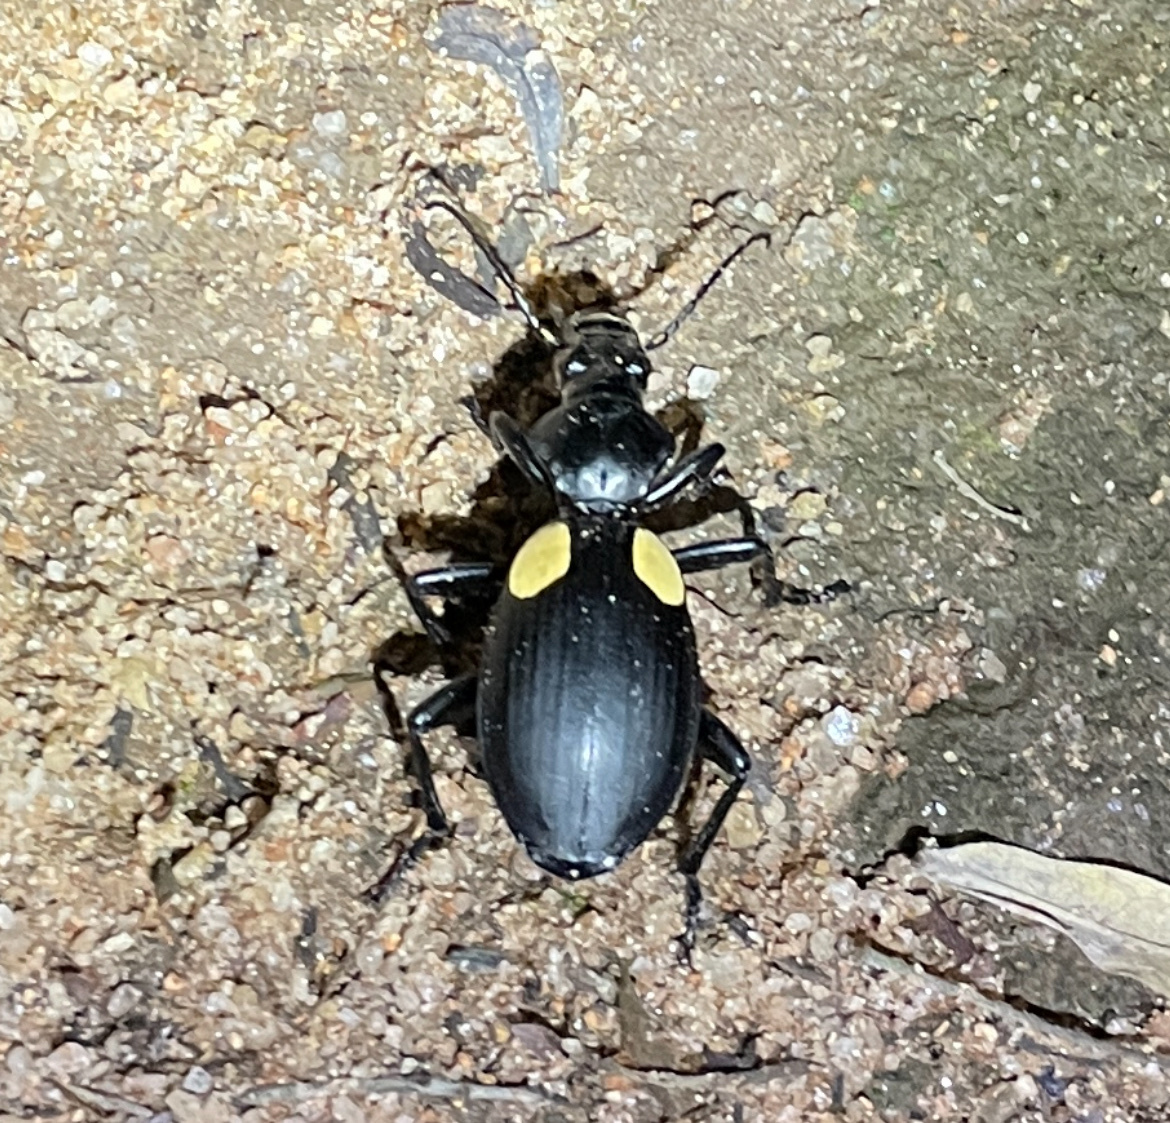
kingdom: Animalia
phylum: Arthropoda
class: Insecta
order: Coleoptera
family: Carabidae
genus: Anthia
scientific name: Anthia
